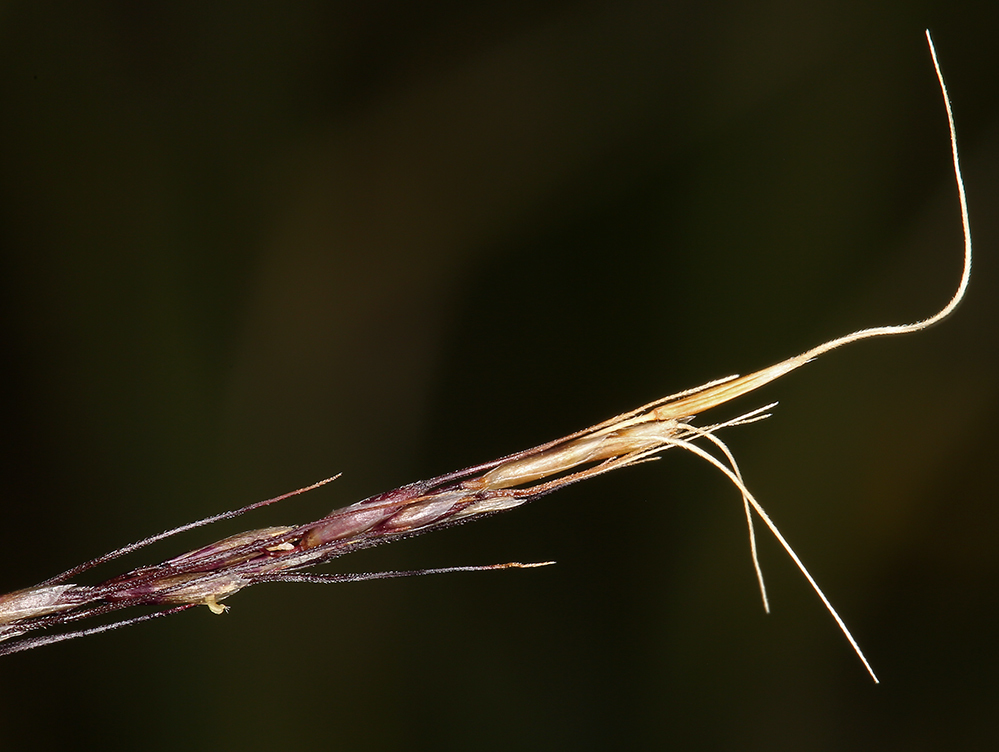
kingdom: Plantae
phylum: Tracheophyta
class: Liliopsida
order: Poales
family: Poaceae
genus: Ptilagrostiella
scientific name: Ptilagrostiella kingii
